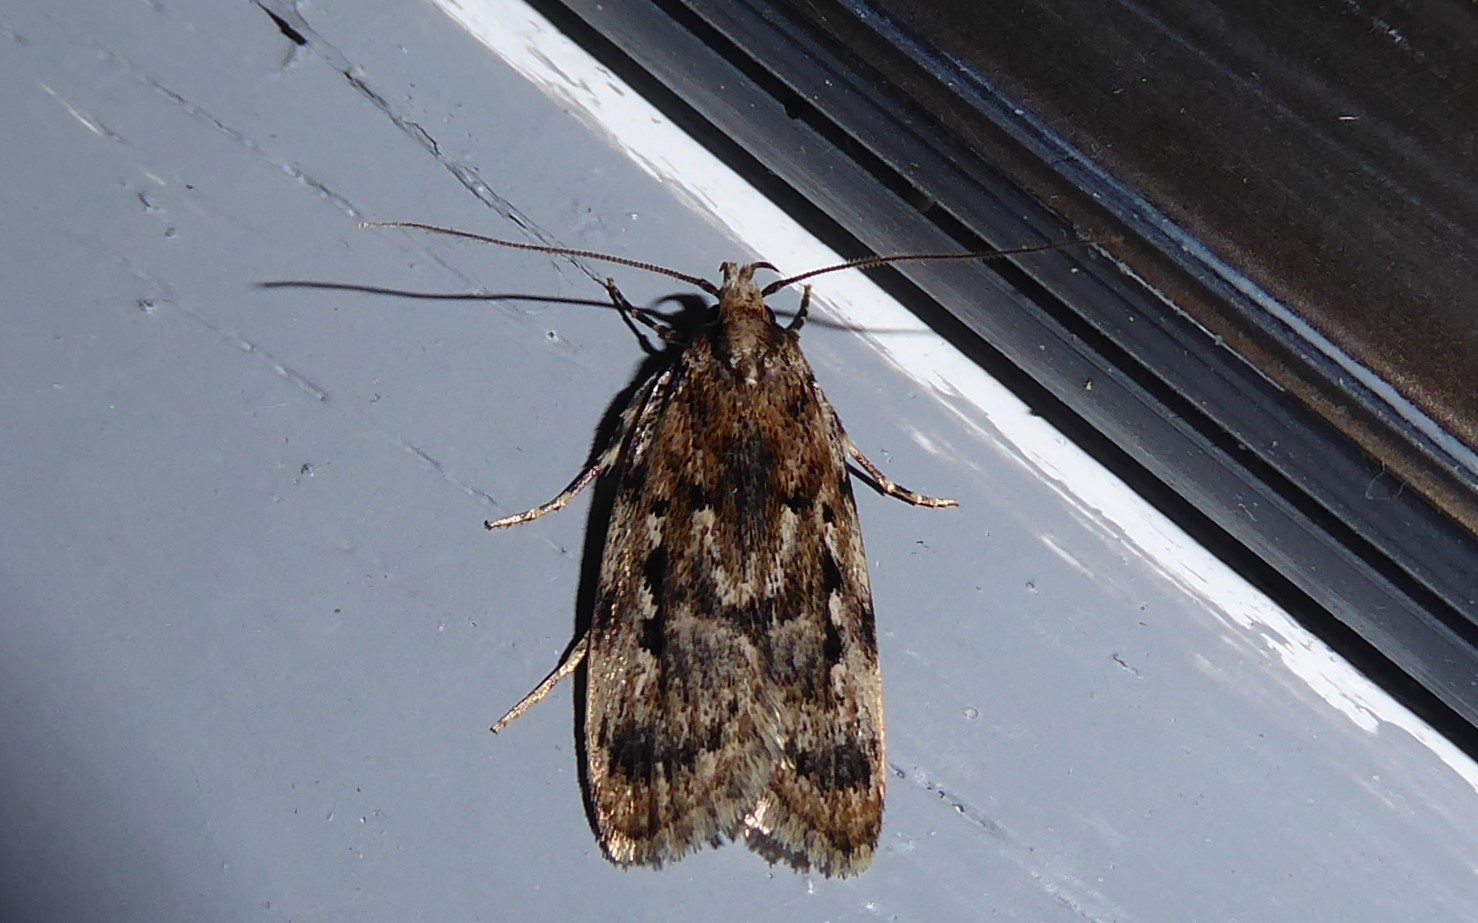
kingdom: Animalia
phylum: Arthropoda
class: Insecta
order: Lepidoptera
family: Oecophoridae
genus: Barea
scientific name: Barea exarcha
